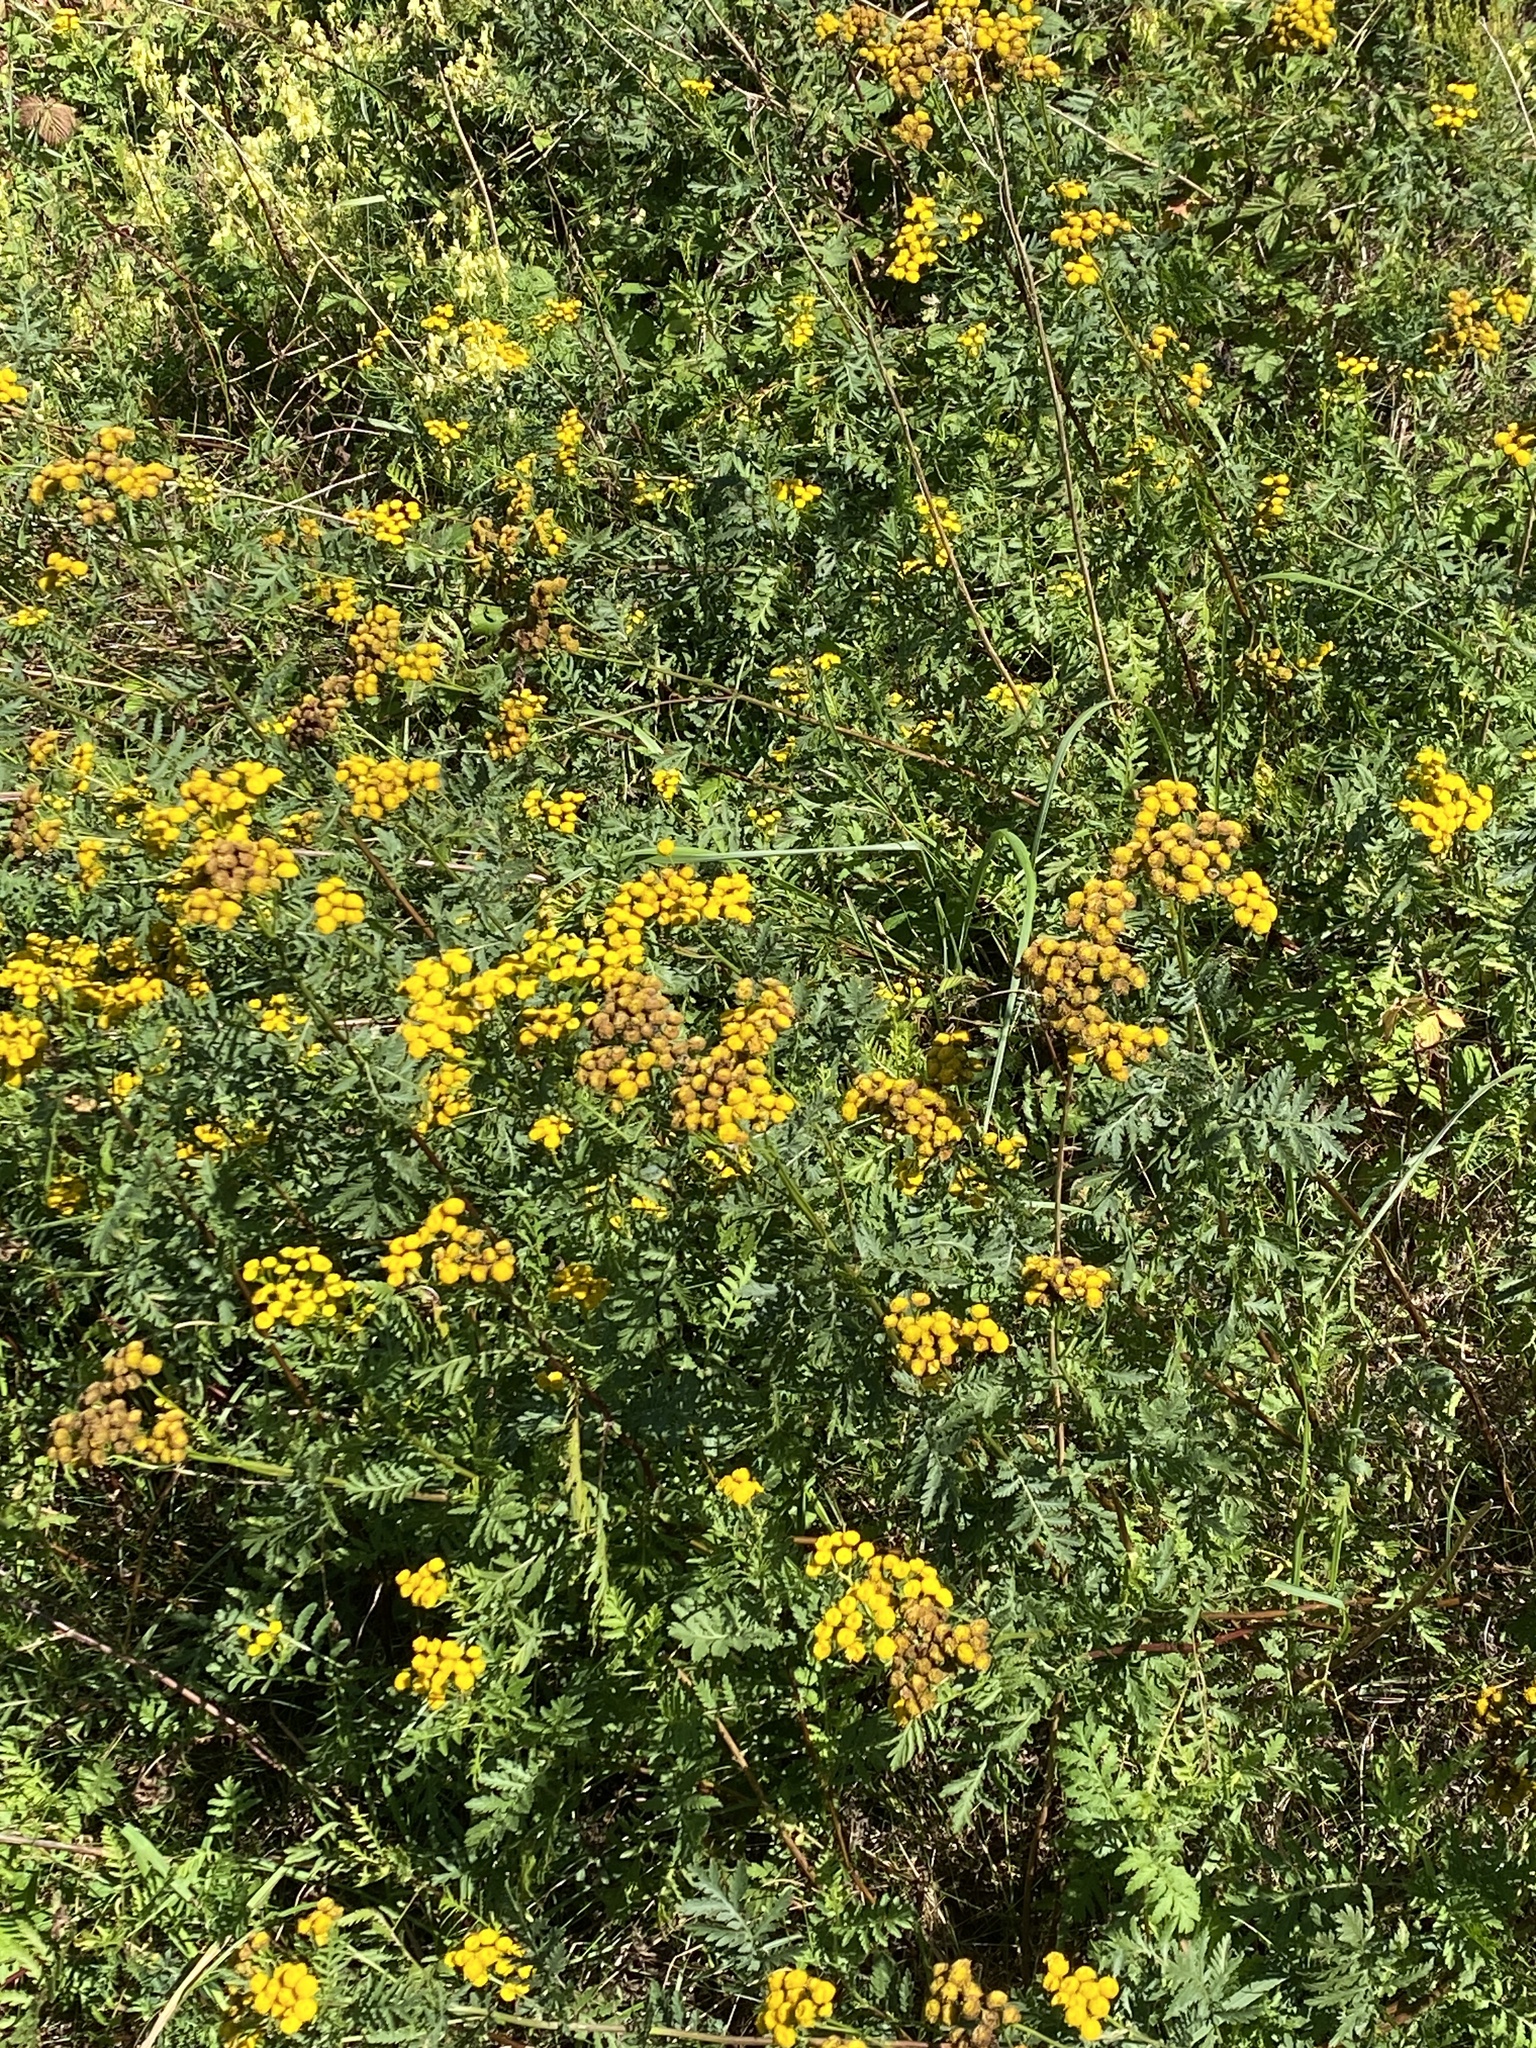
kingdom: Plantae
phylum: Tracheophyta
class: Magnoliopsida
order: Asterales
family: Asteraceae
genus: Tanacetum
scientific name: Tanacetum vulgare
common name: Common tansy
